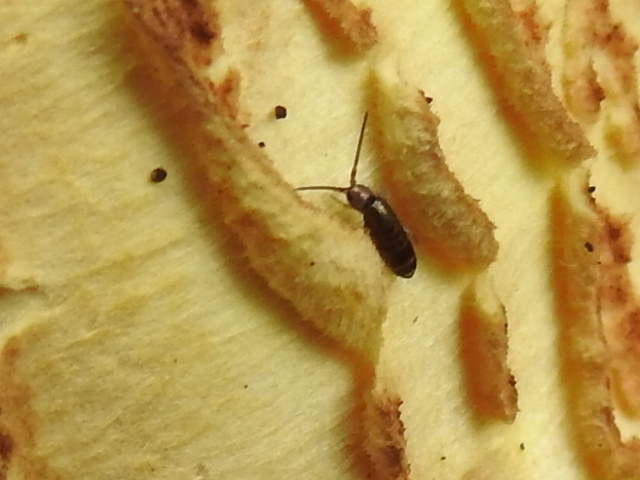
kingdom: Animalia
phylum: Arthropoda
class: Collembola
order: Entomobryomorpha
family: Tomoceridae
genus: Tomocerus
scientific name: Tomocerus vulgaris
